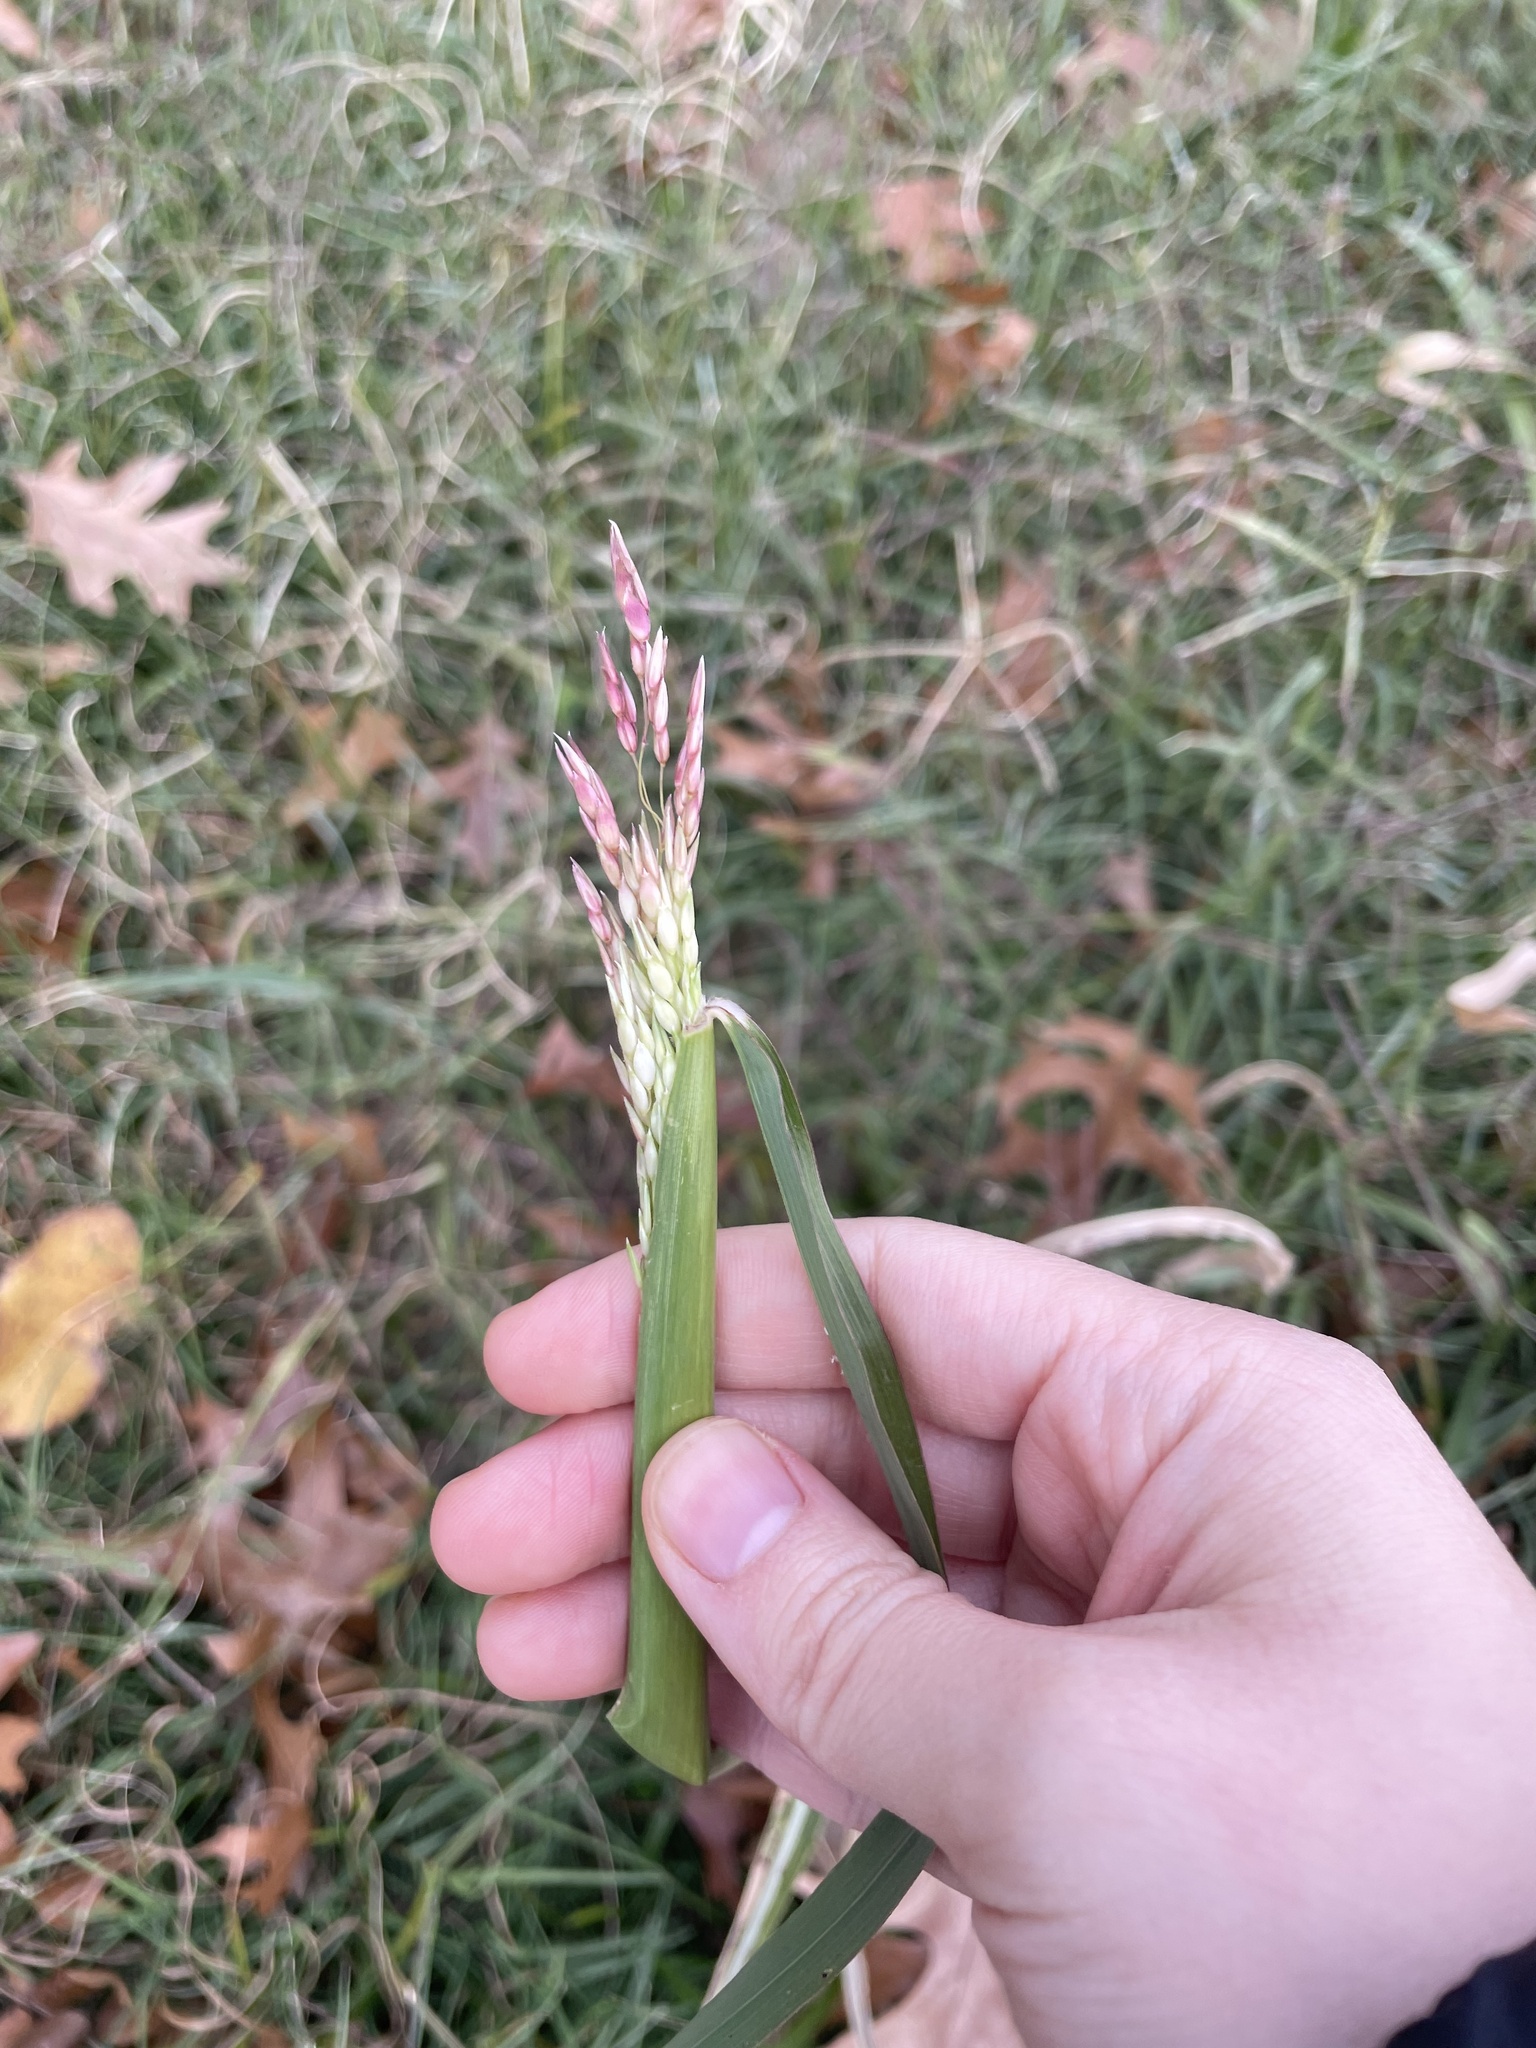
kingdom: Plantae
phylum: Tracheophyta
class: Liliopsida
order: Poales
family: Poaceae
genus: Sorghum
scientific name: Sorghum halepense
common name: Johnson-grass
